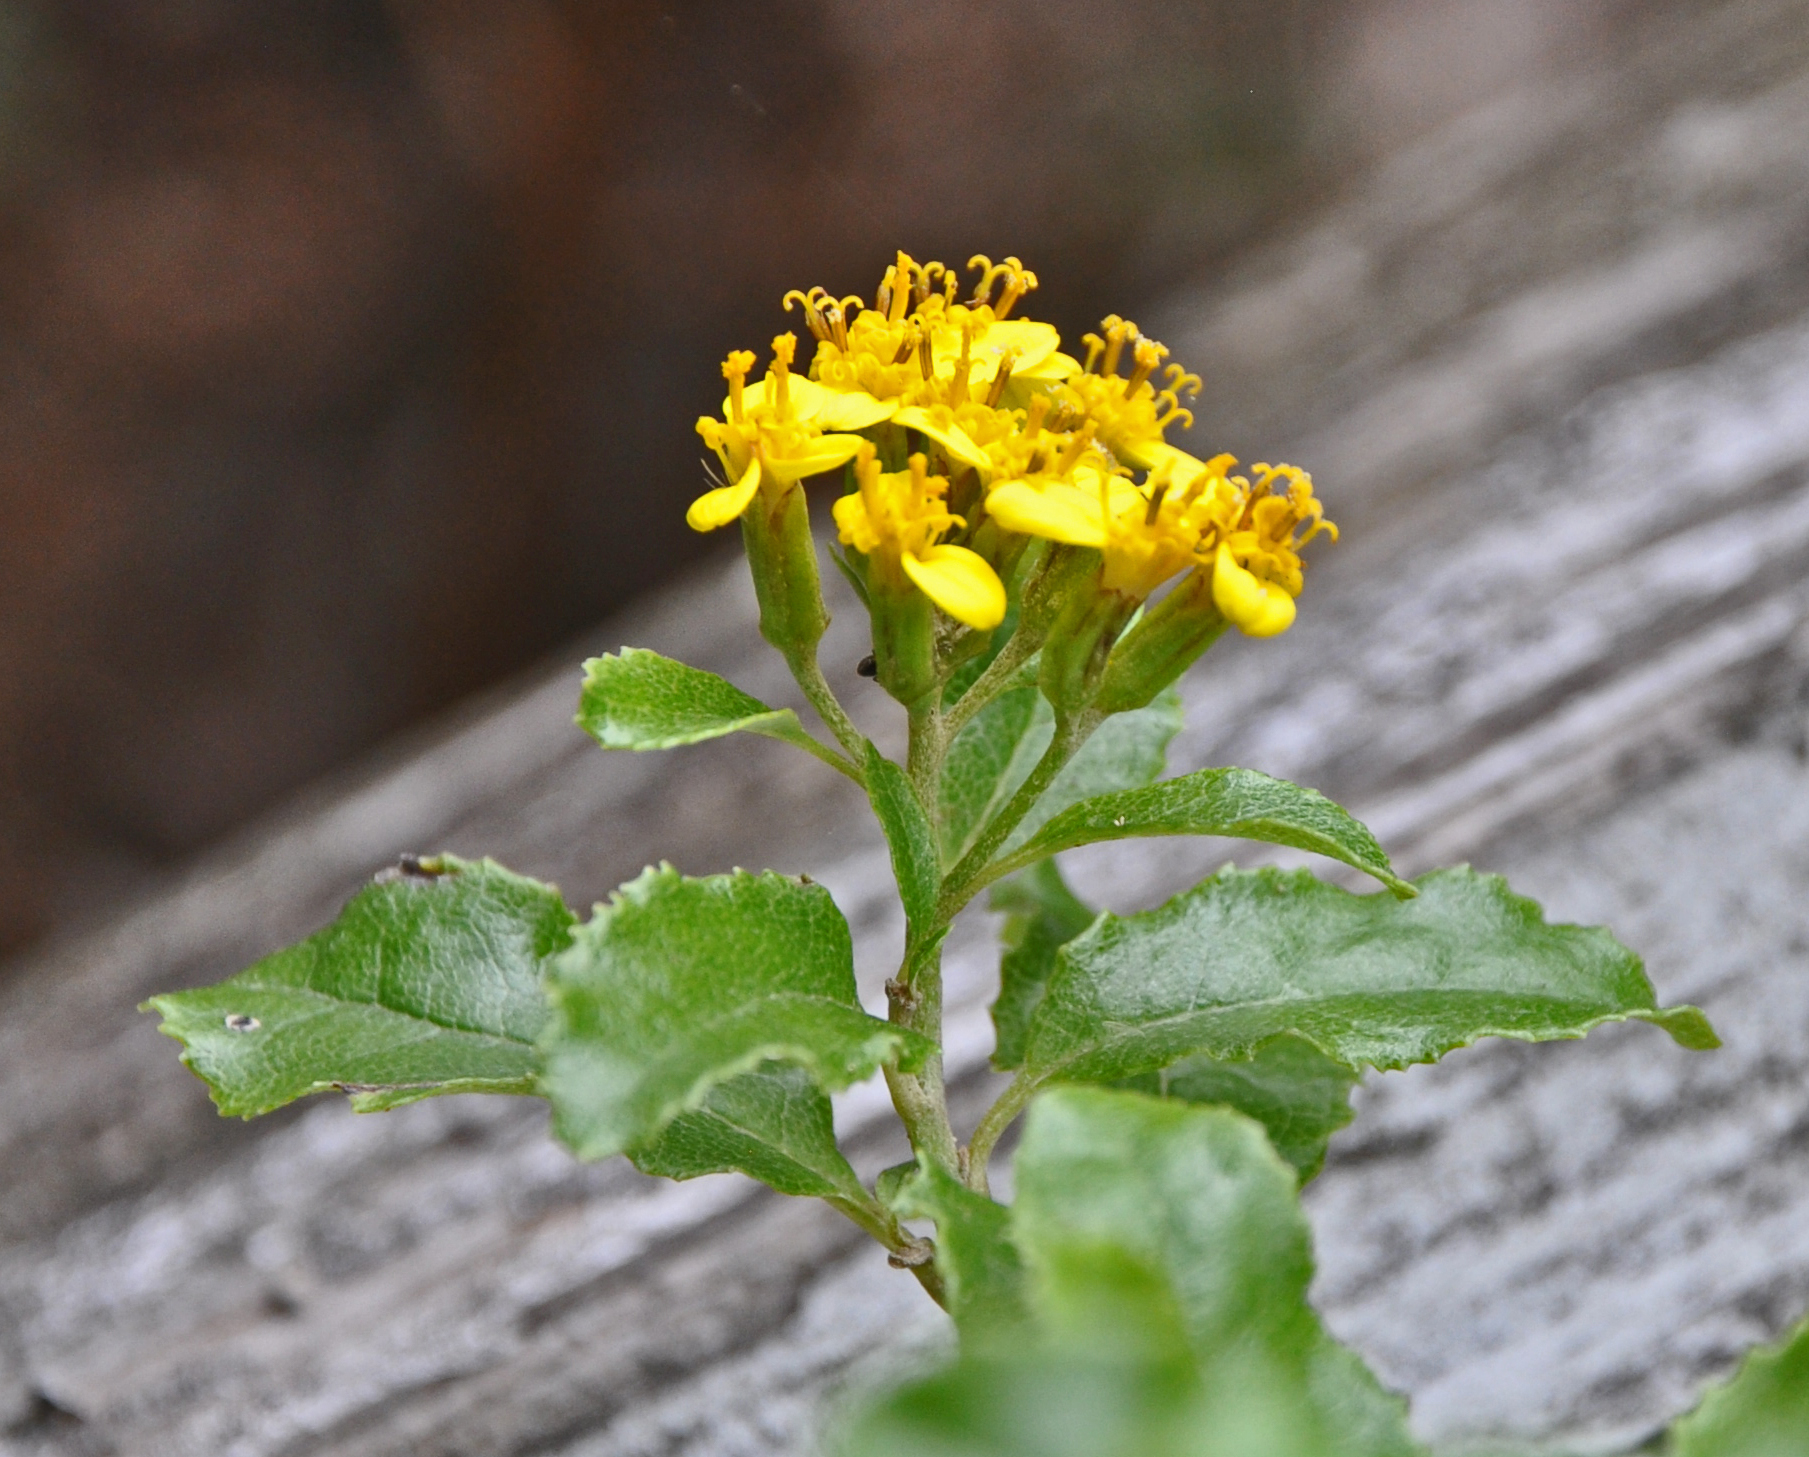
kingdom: Plantae
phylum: Tracheophyta
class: Magnoliopsida
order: Asterales
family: Asteraceae
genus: Brachyglottis
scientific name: Brachyglottis perdicioides
